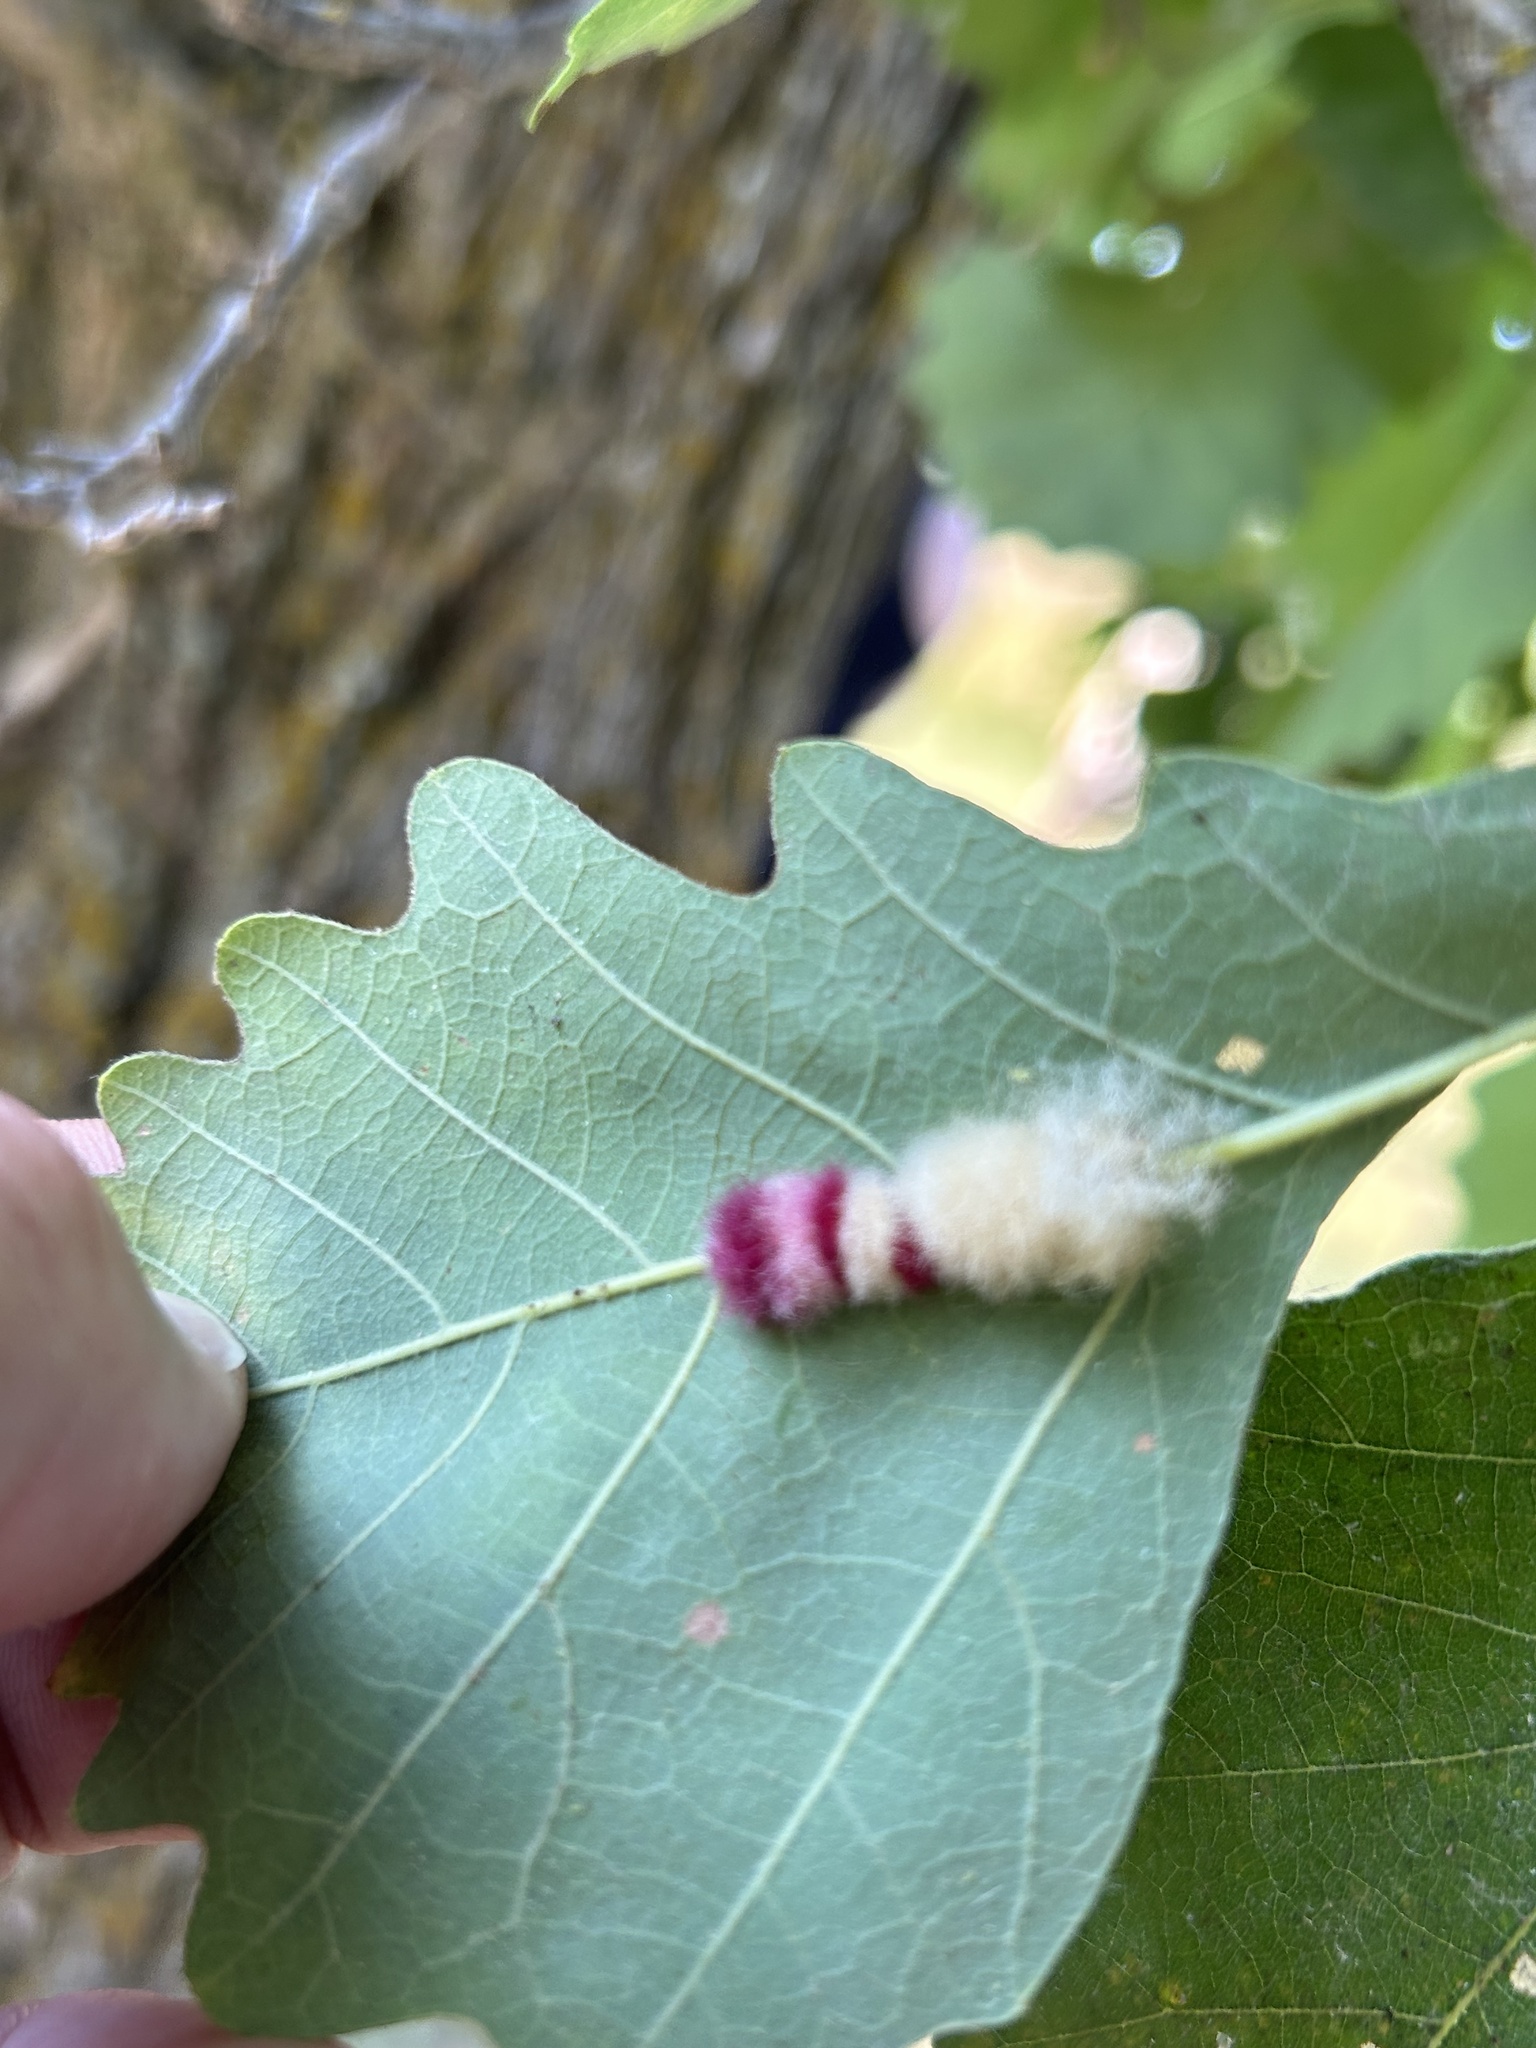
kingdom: Animalia
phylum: Arthropoda
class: Insecta
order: Hymenoptera
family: Cynipidae
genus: Andricus
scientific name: Andricus Druon ignotum
